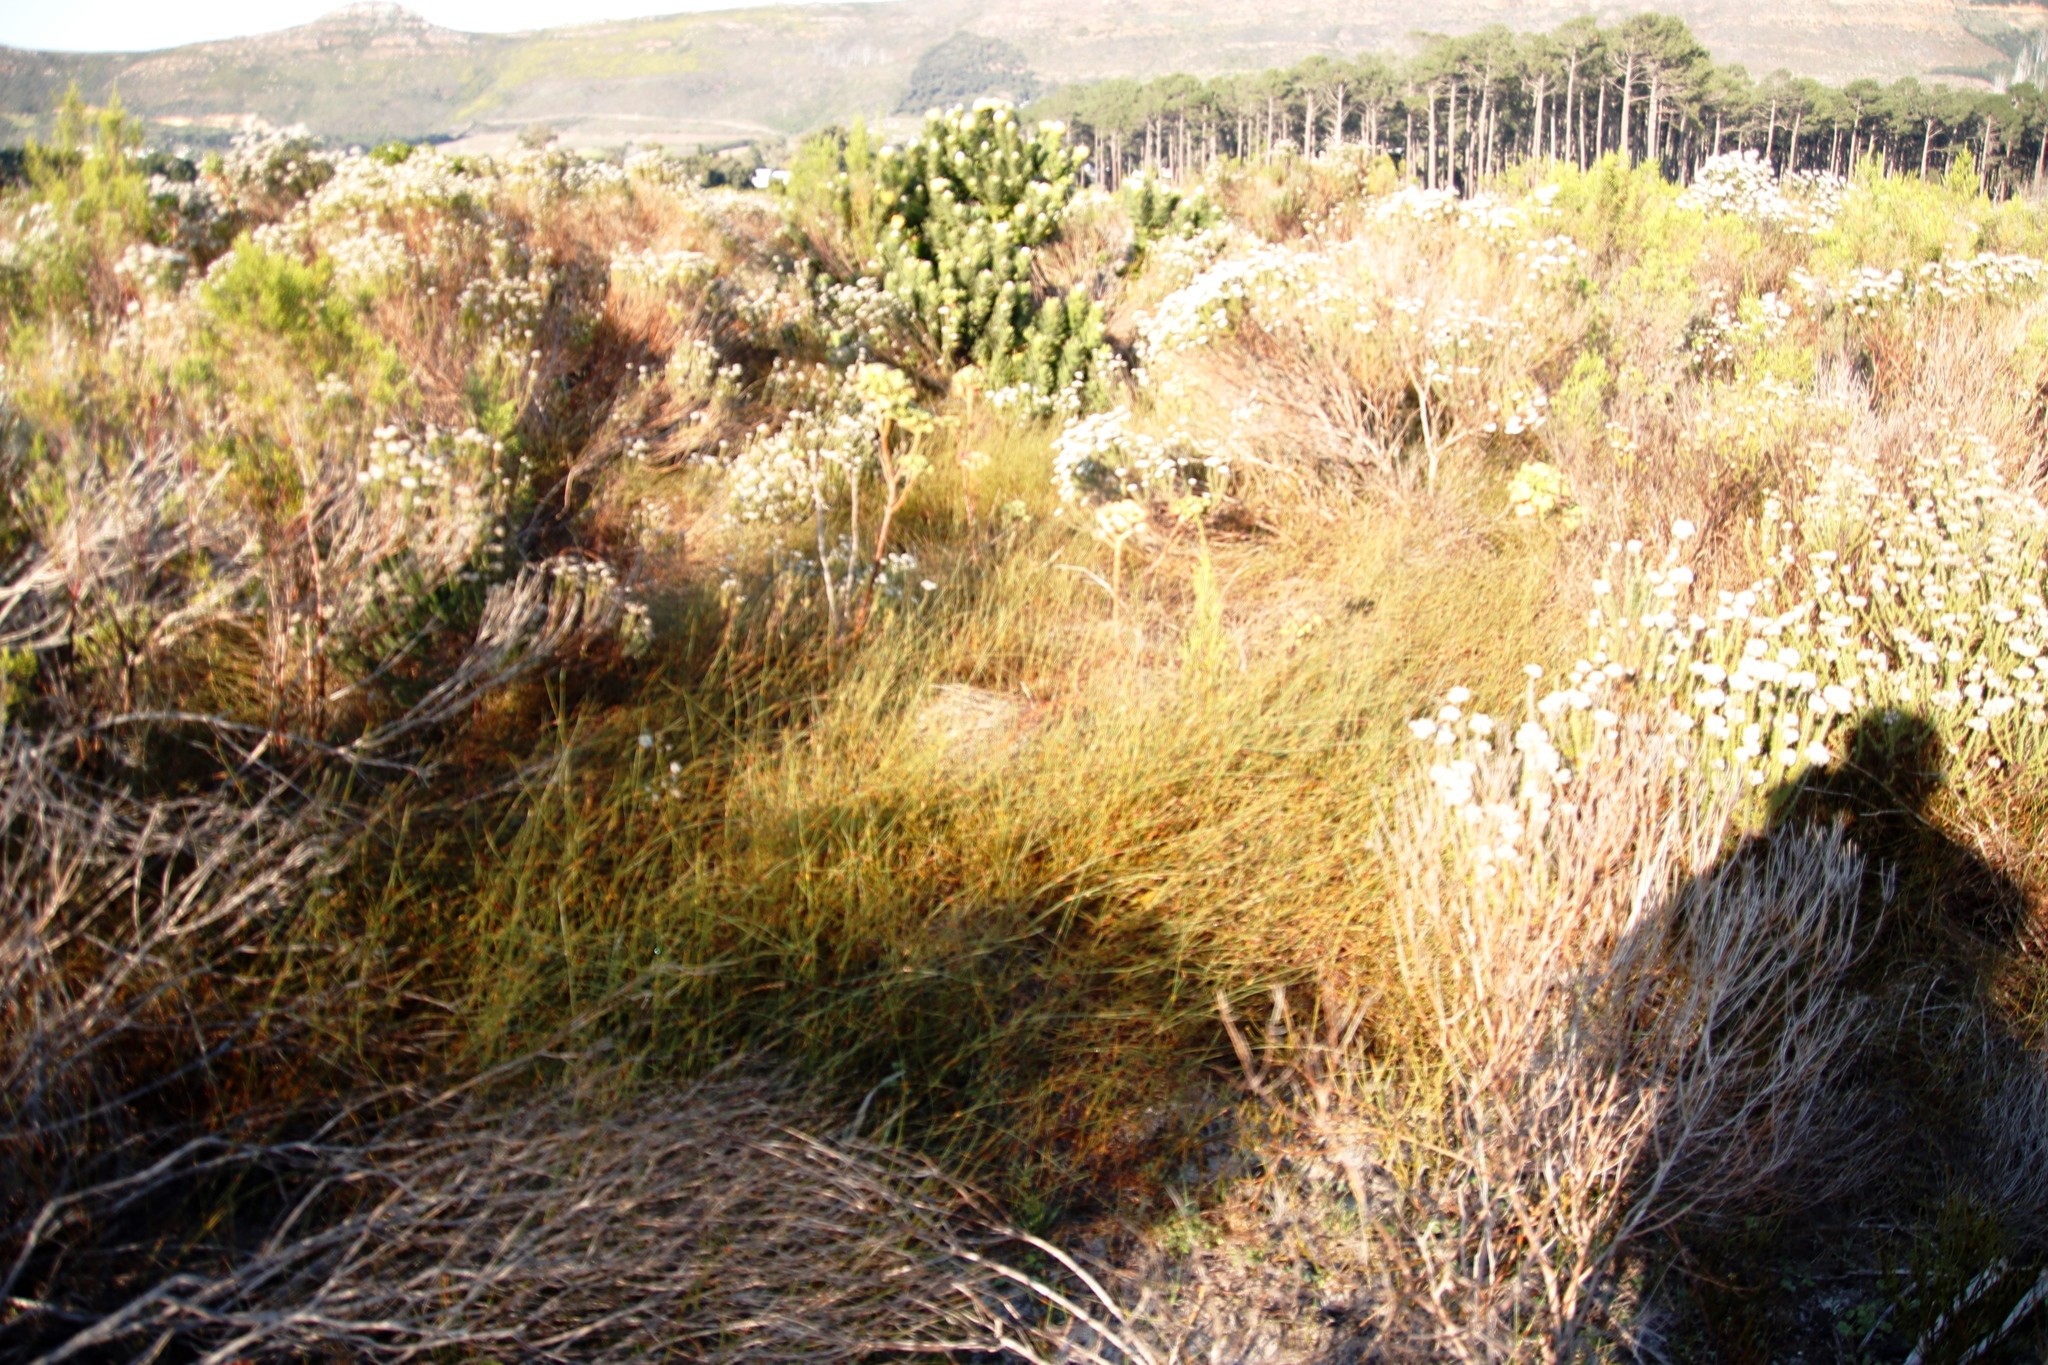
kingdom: Plantae
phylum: Tracheophyta
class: Liliopsida
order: Poales
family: Restionaceae
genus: Willdenowia
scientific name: Willdenowia sulcata
